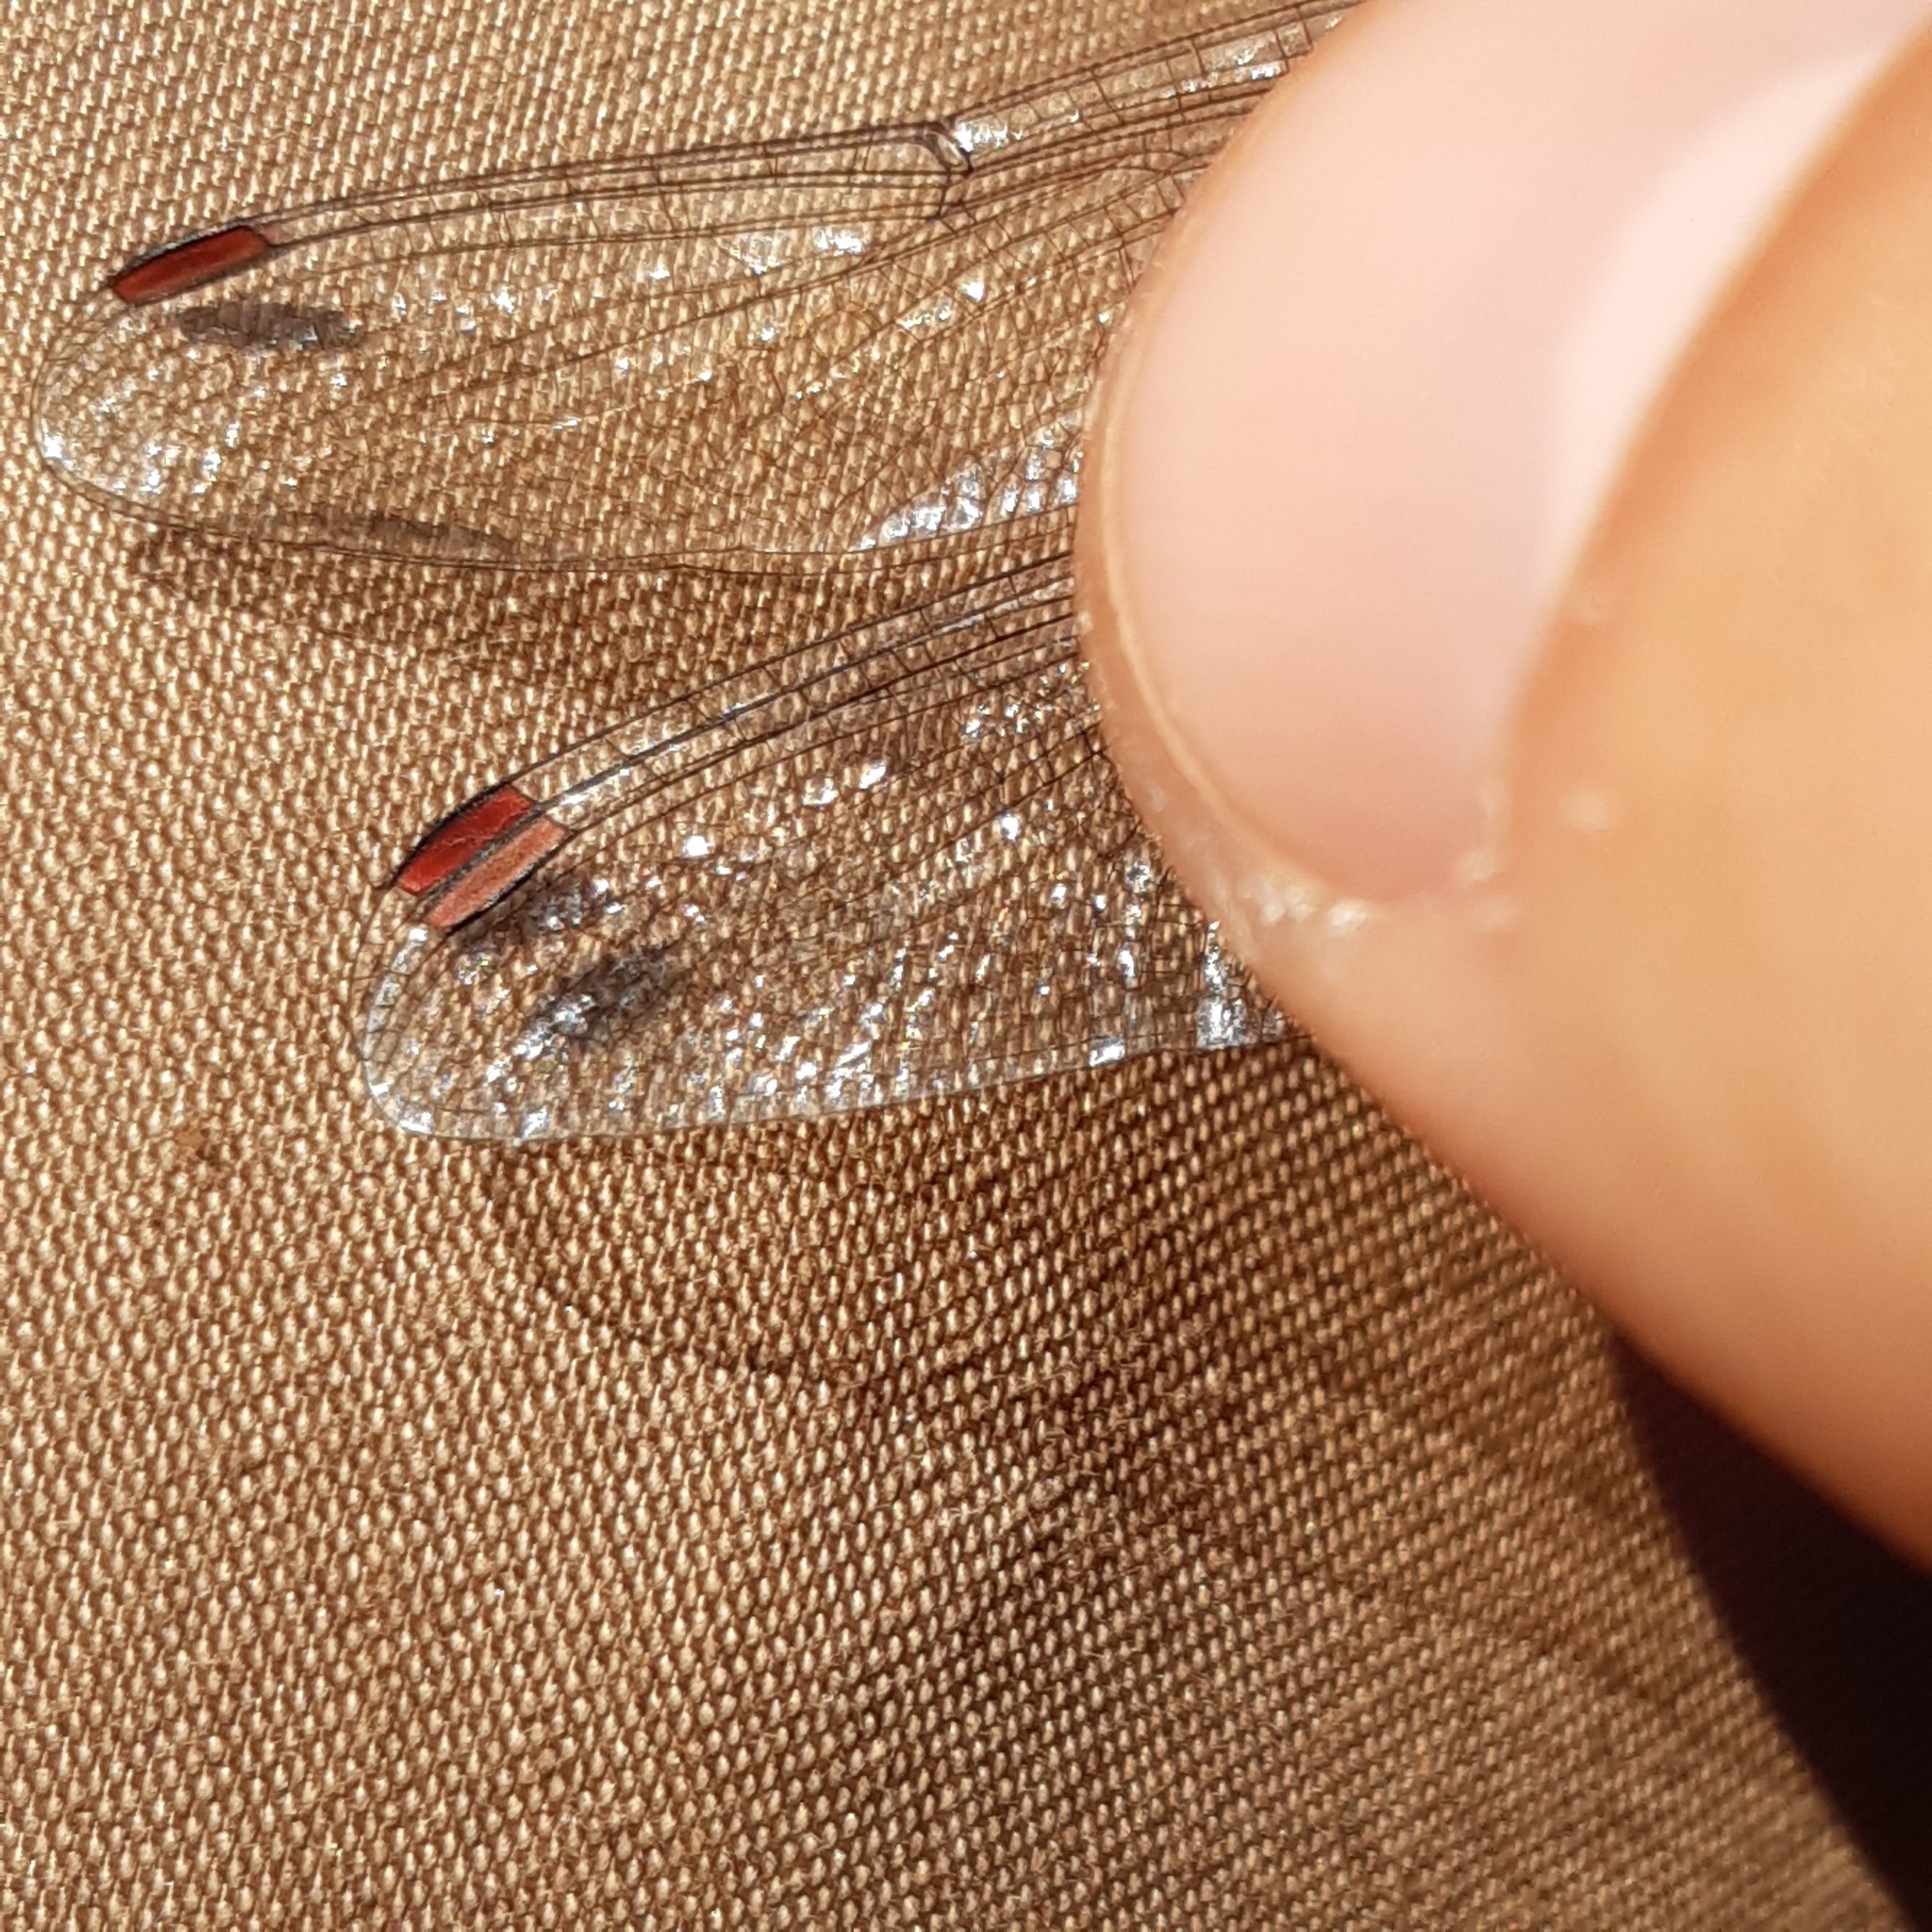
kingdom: Animalia
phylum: Arthropoda
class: Insecta
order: Odonata
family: Libellulidae
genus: Sympetrum
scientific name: Sympetrum sanguineum
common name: Ruddy darter
